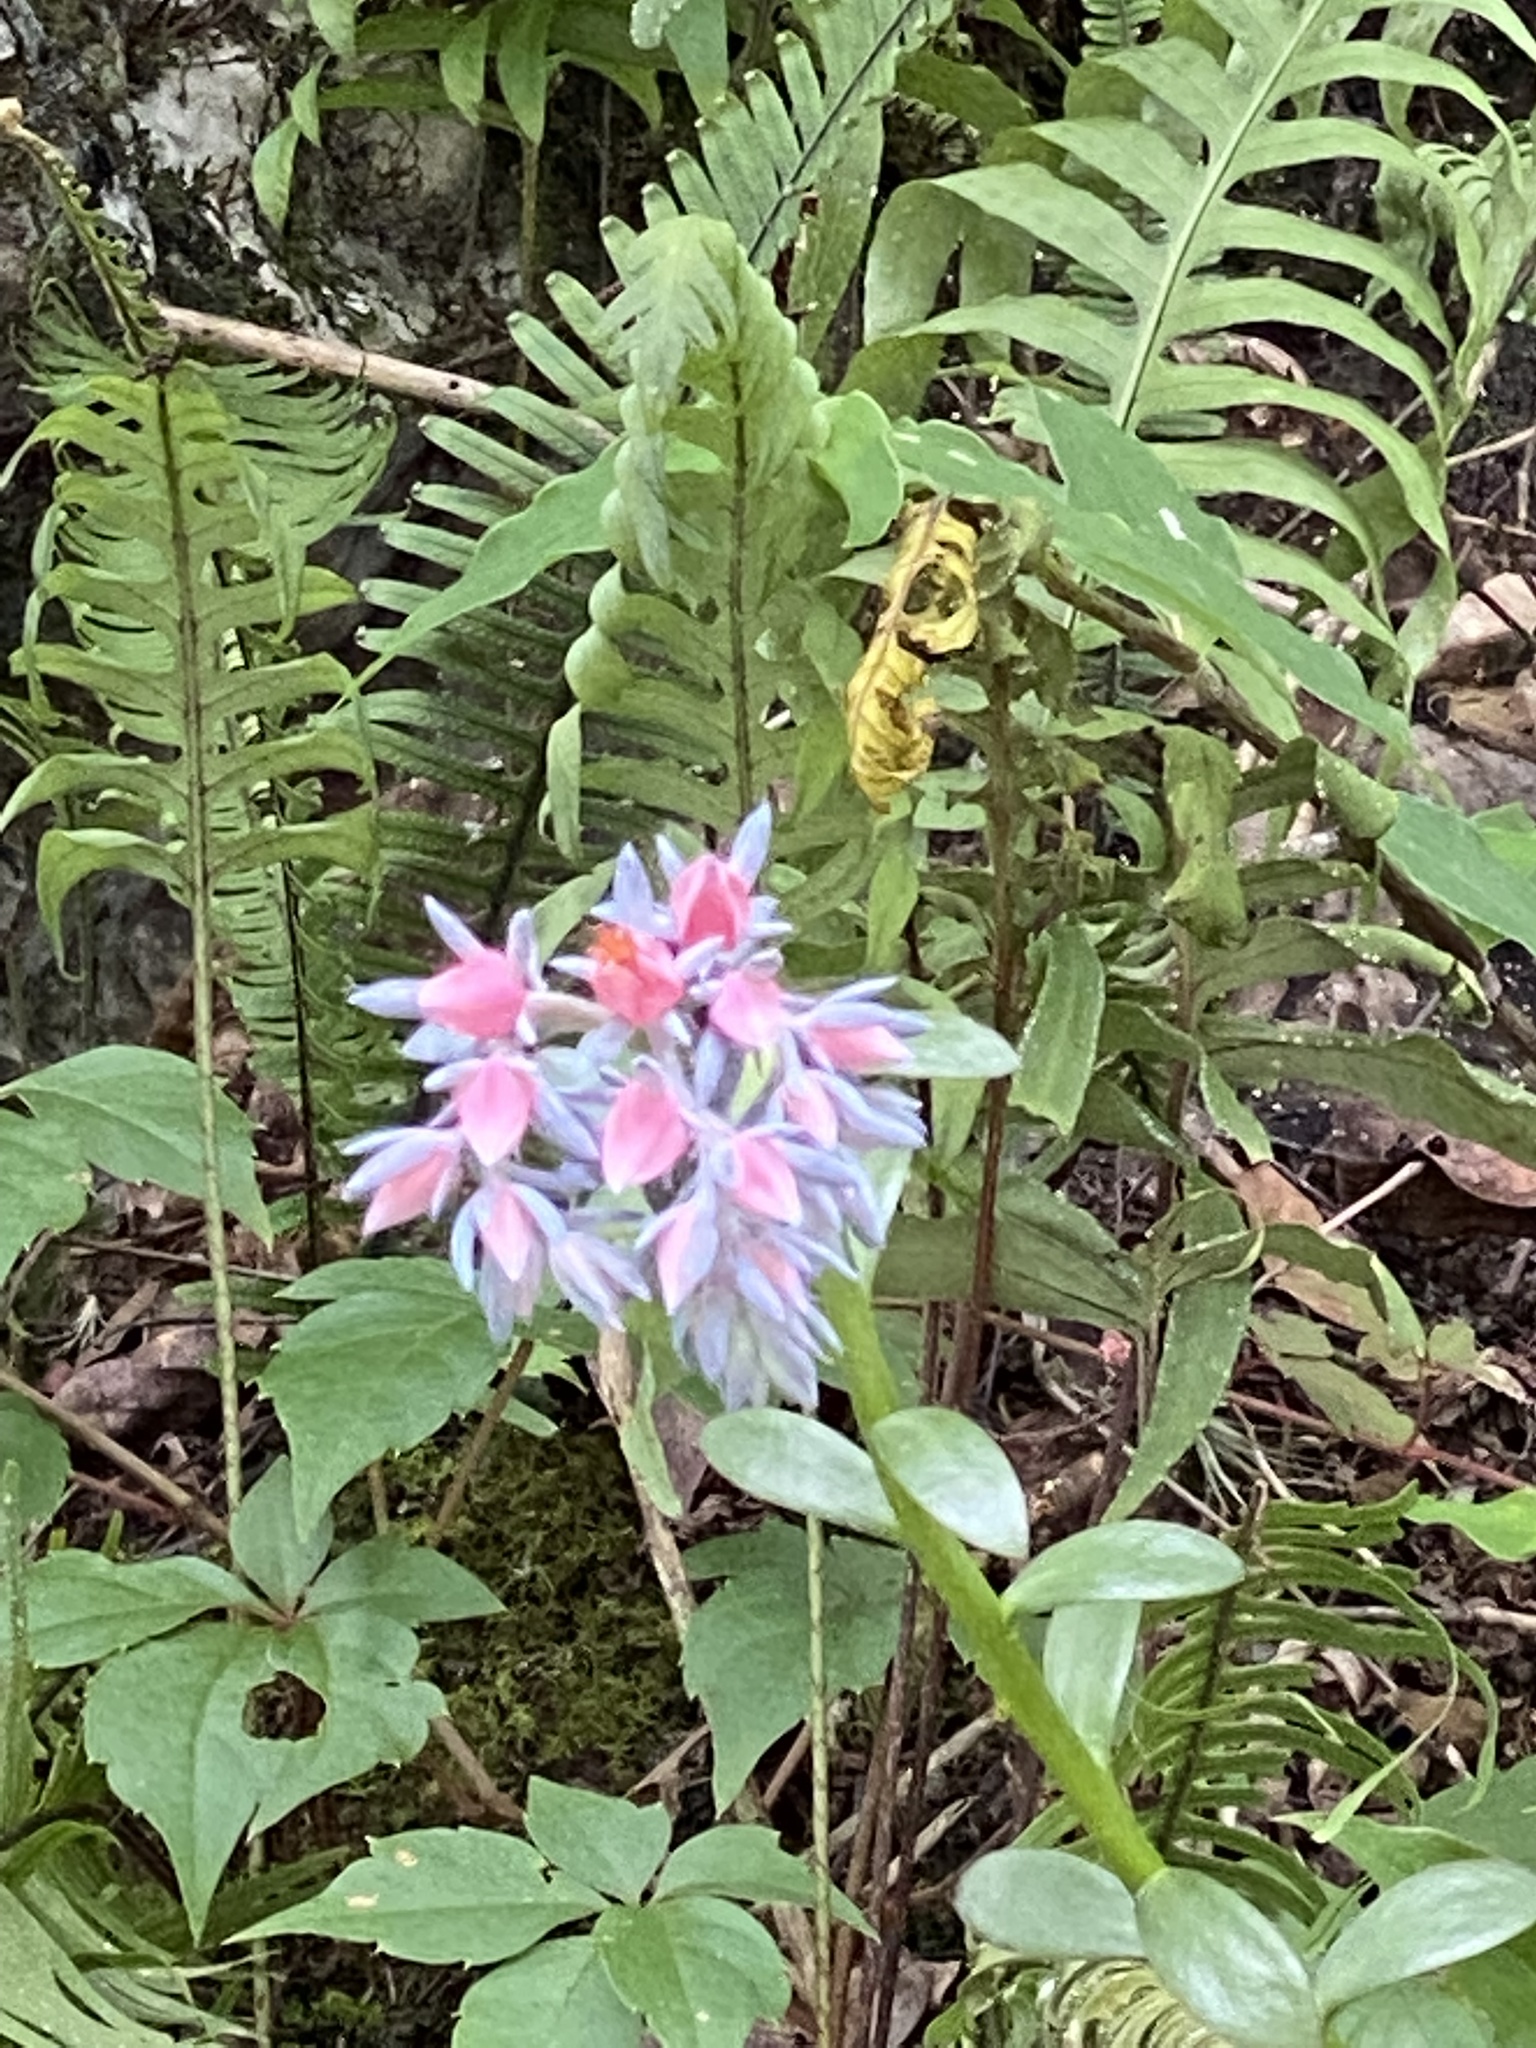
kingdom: Plantae
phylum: Tracheophyta
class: Magnoliopsida
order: Saxifragales
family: Crassulaceae
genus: Echeveria
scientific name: Echeveria semivestita
